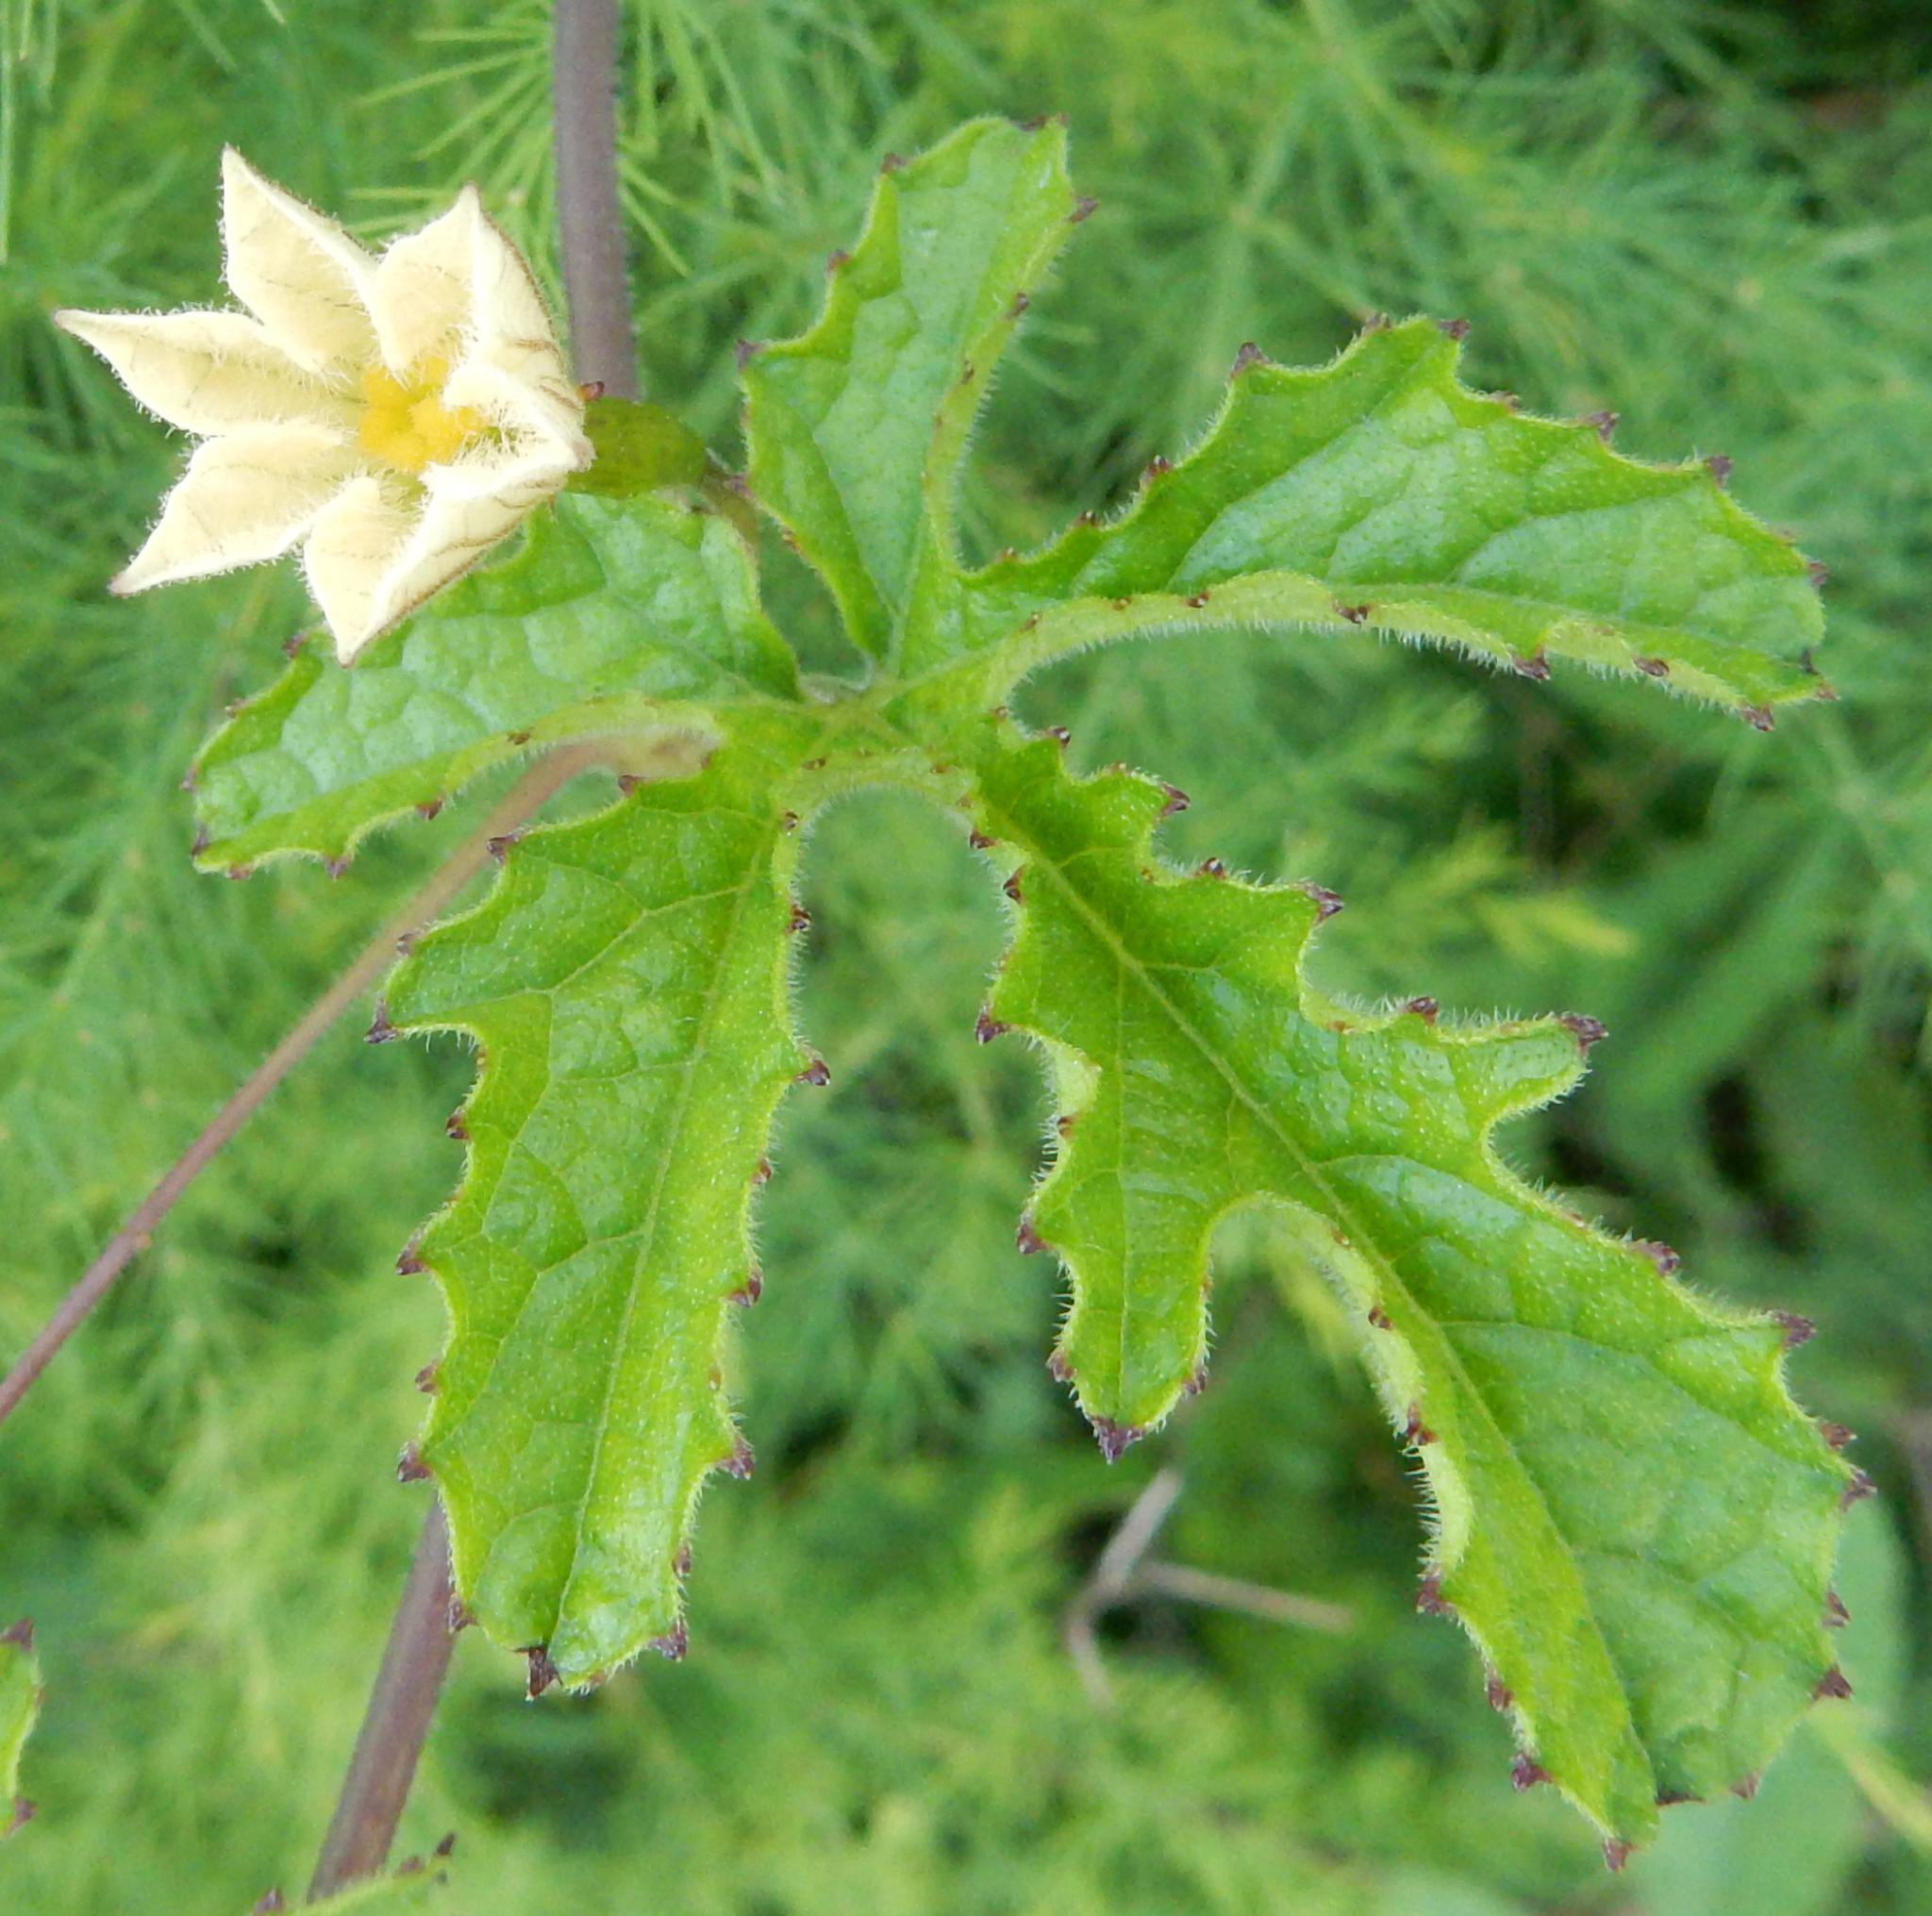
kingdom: Plantae
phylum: Tracheophyta
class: Magnoliopsida
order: Cucurbitales
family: Cucurbitaceae
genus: Coccinia
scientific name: Coccinia adoensis
